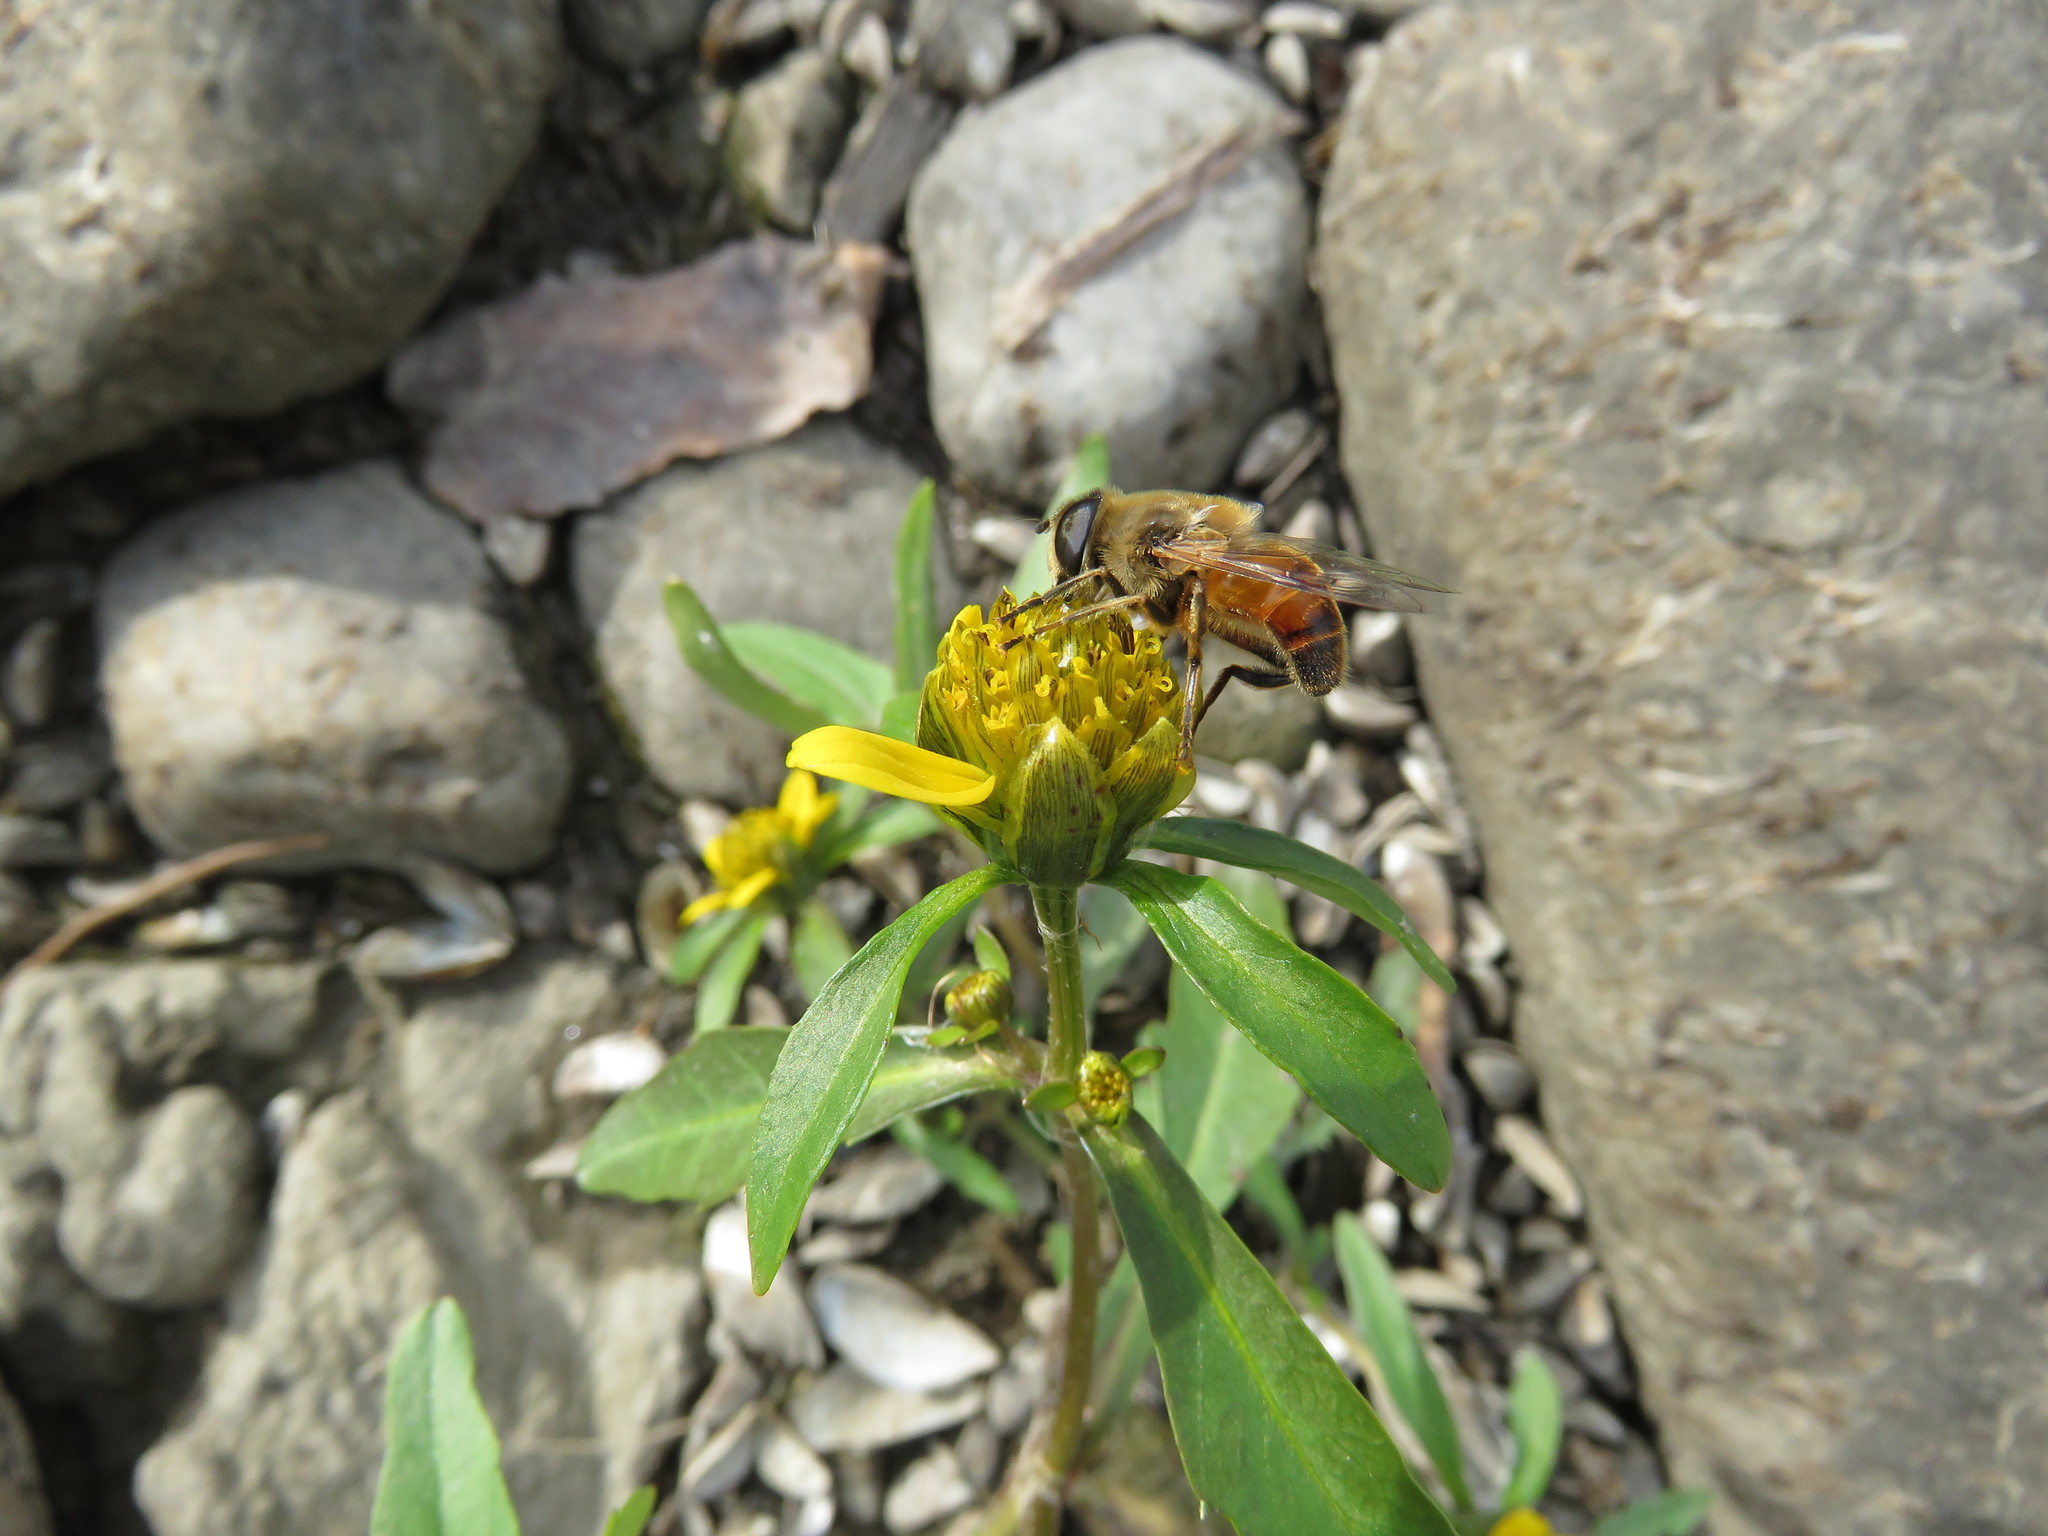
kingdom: Animalia
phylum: Arthropoda
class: Insecta
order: Diptera
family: Syrphidae
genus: Eristalis
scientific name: Eristalis tenax
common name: Drone fly
